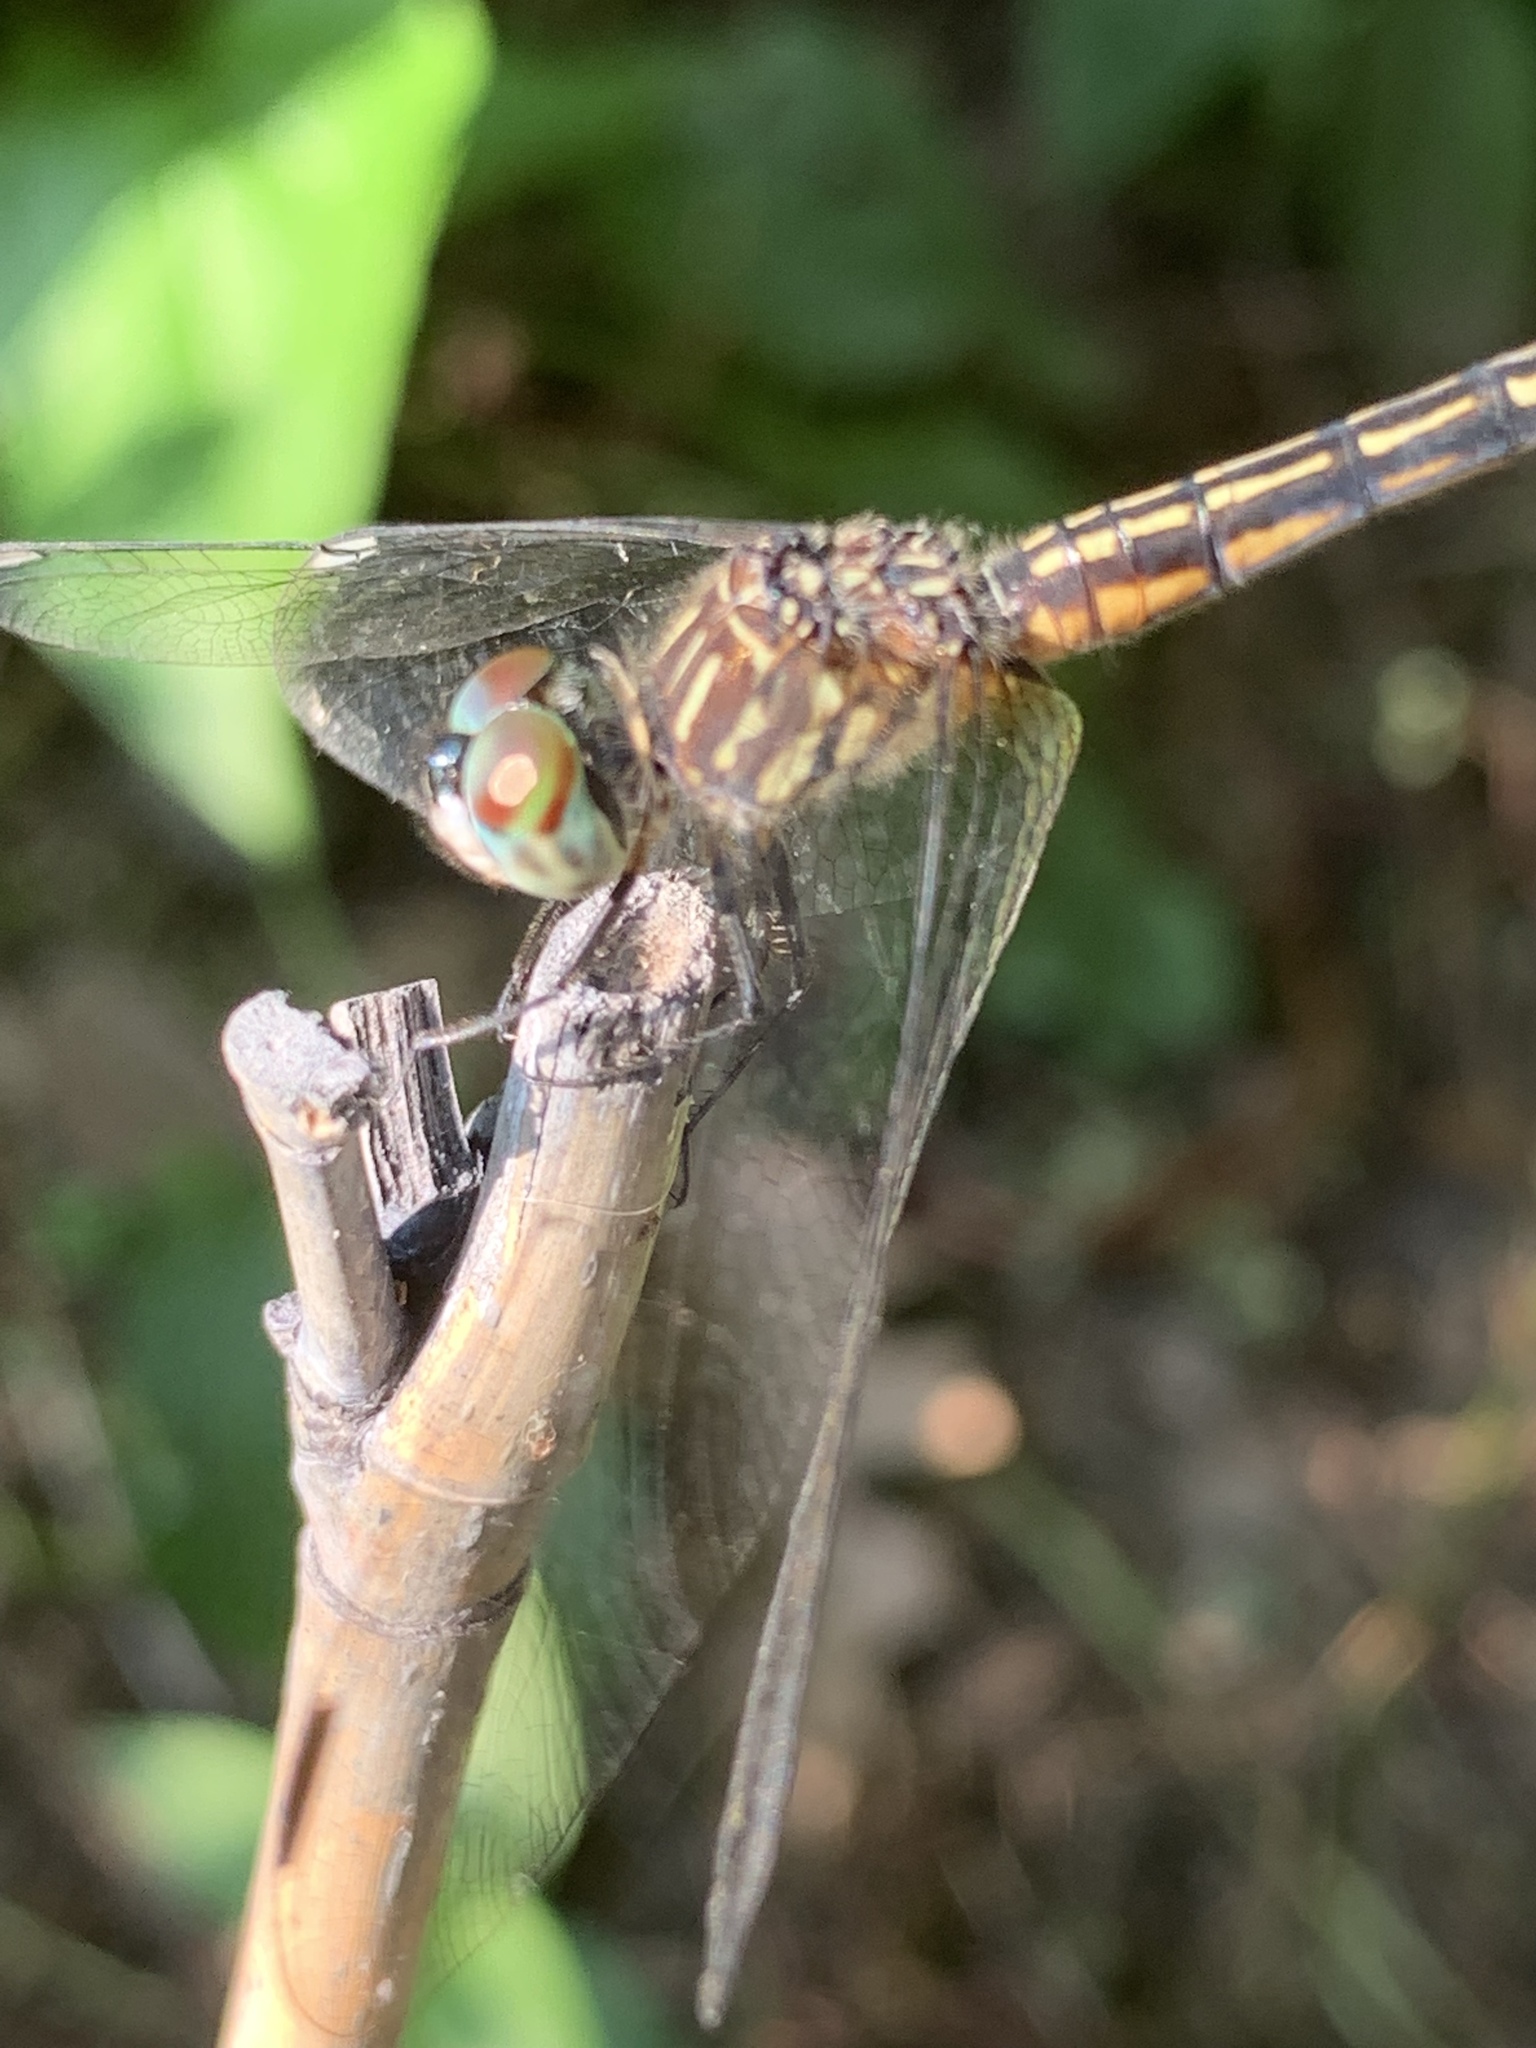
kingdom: Animalia
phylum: Arthropoda
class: Insecta
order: Odonata
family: Libellulidae
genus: Pachydiplax
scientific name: Pachydiplax longipennis
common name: Blue dasher
